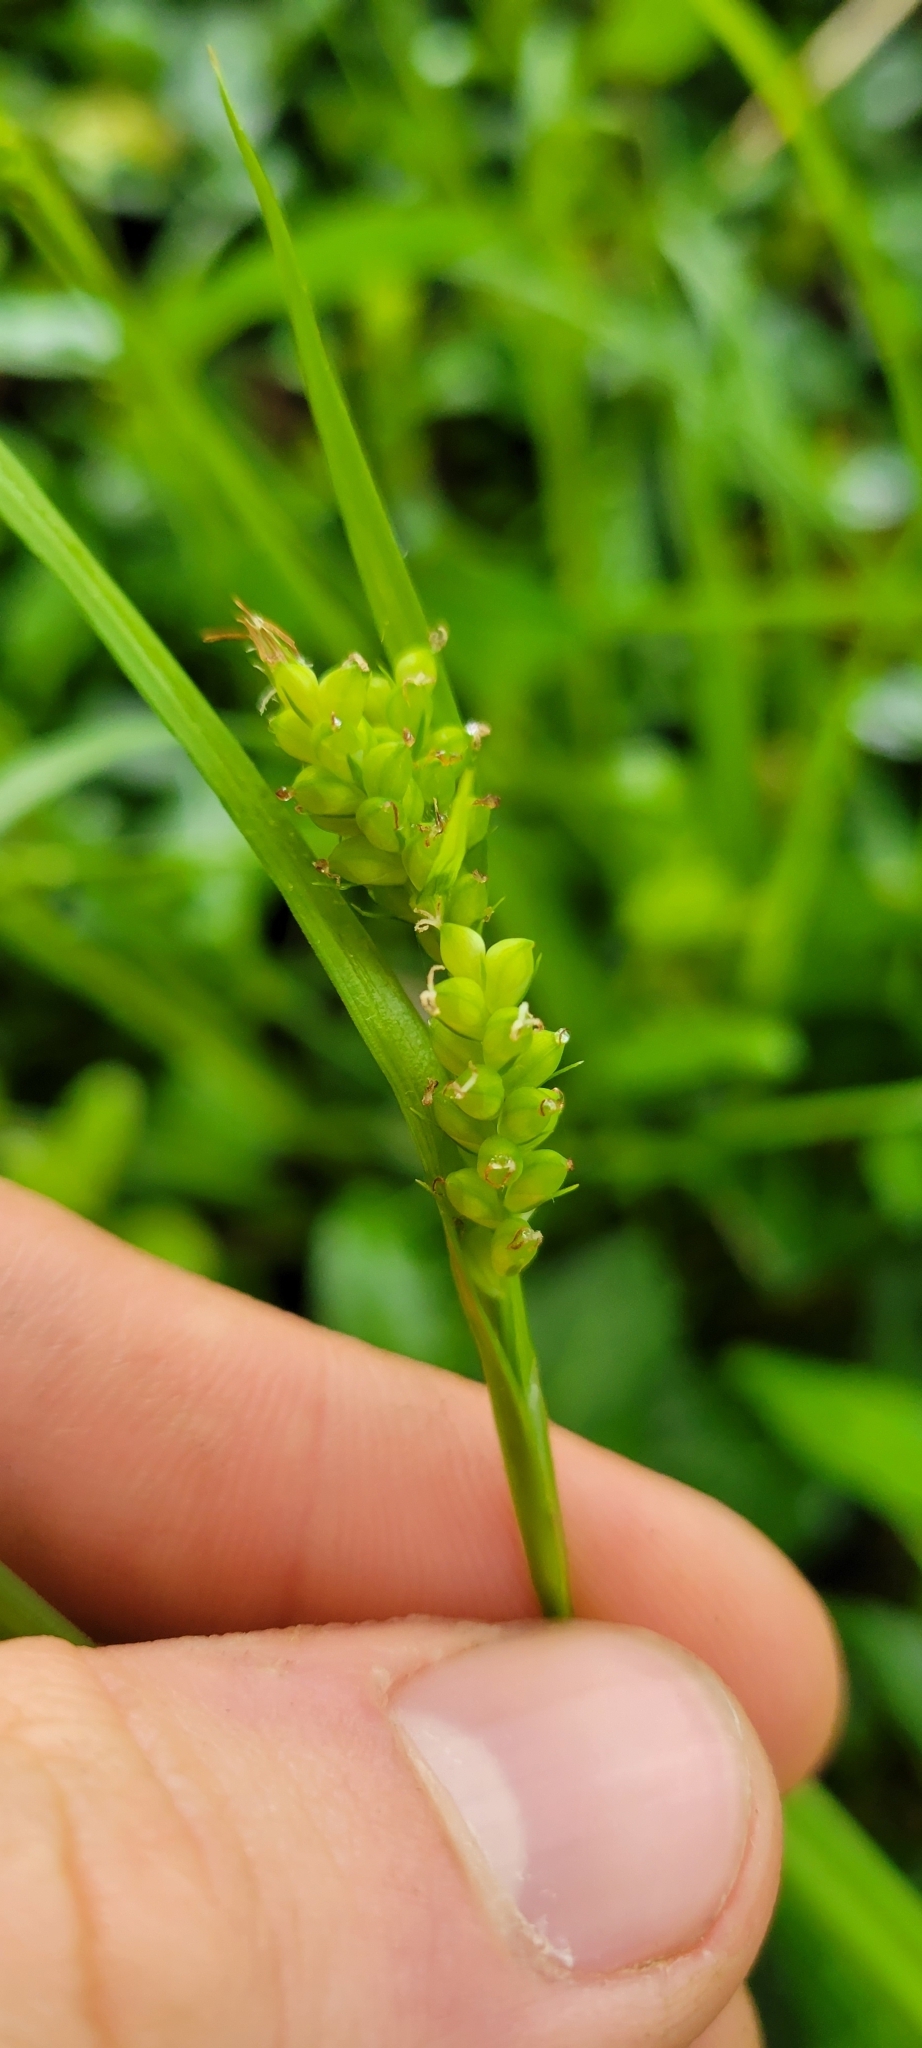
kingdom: Plantae
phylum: Tracheophyta
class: Liliopsida
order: Poales
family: Cyperaceae
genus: Carex
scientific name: Carex blanda
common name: Bland sedge
